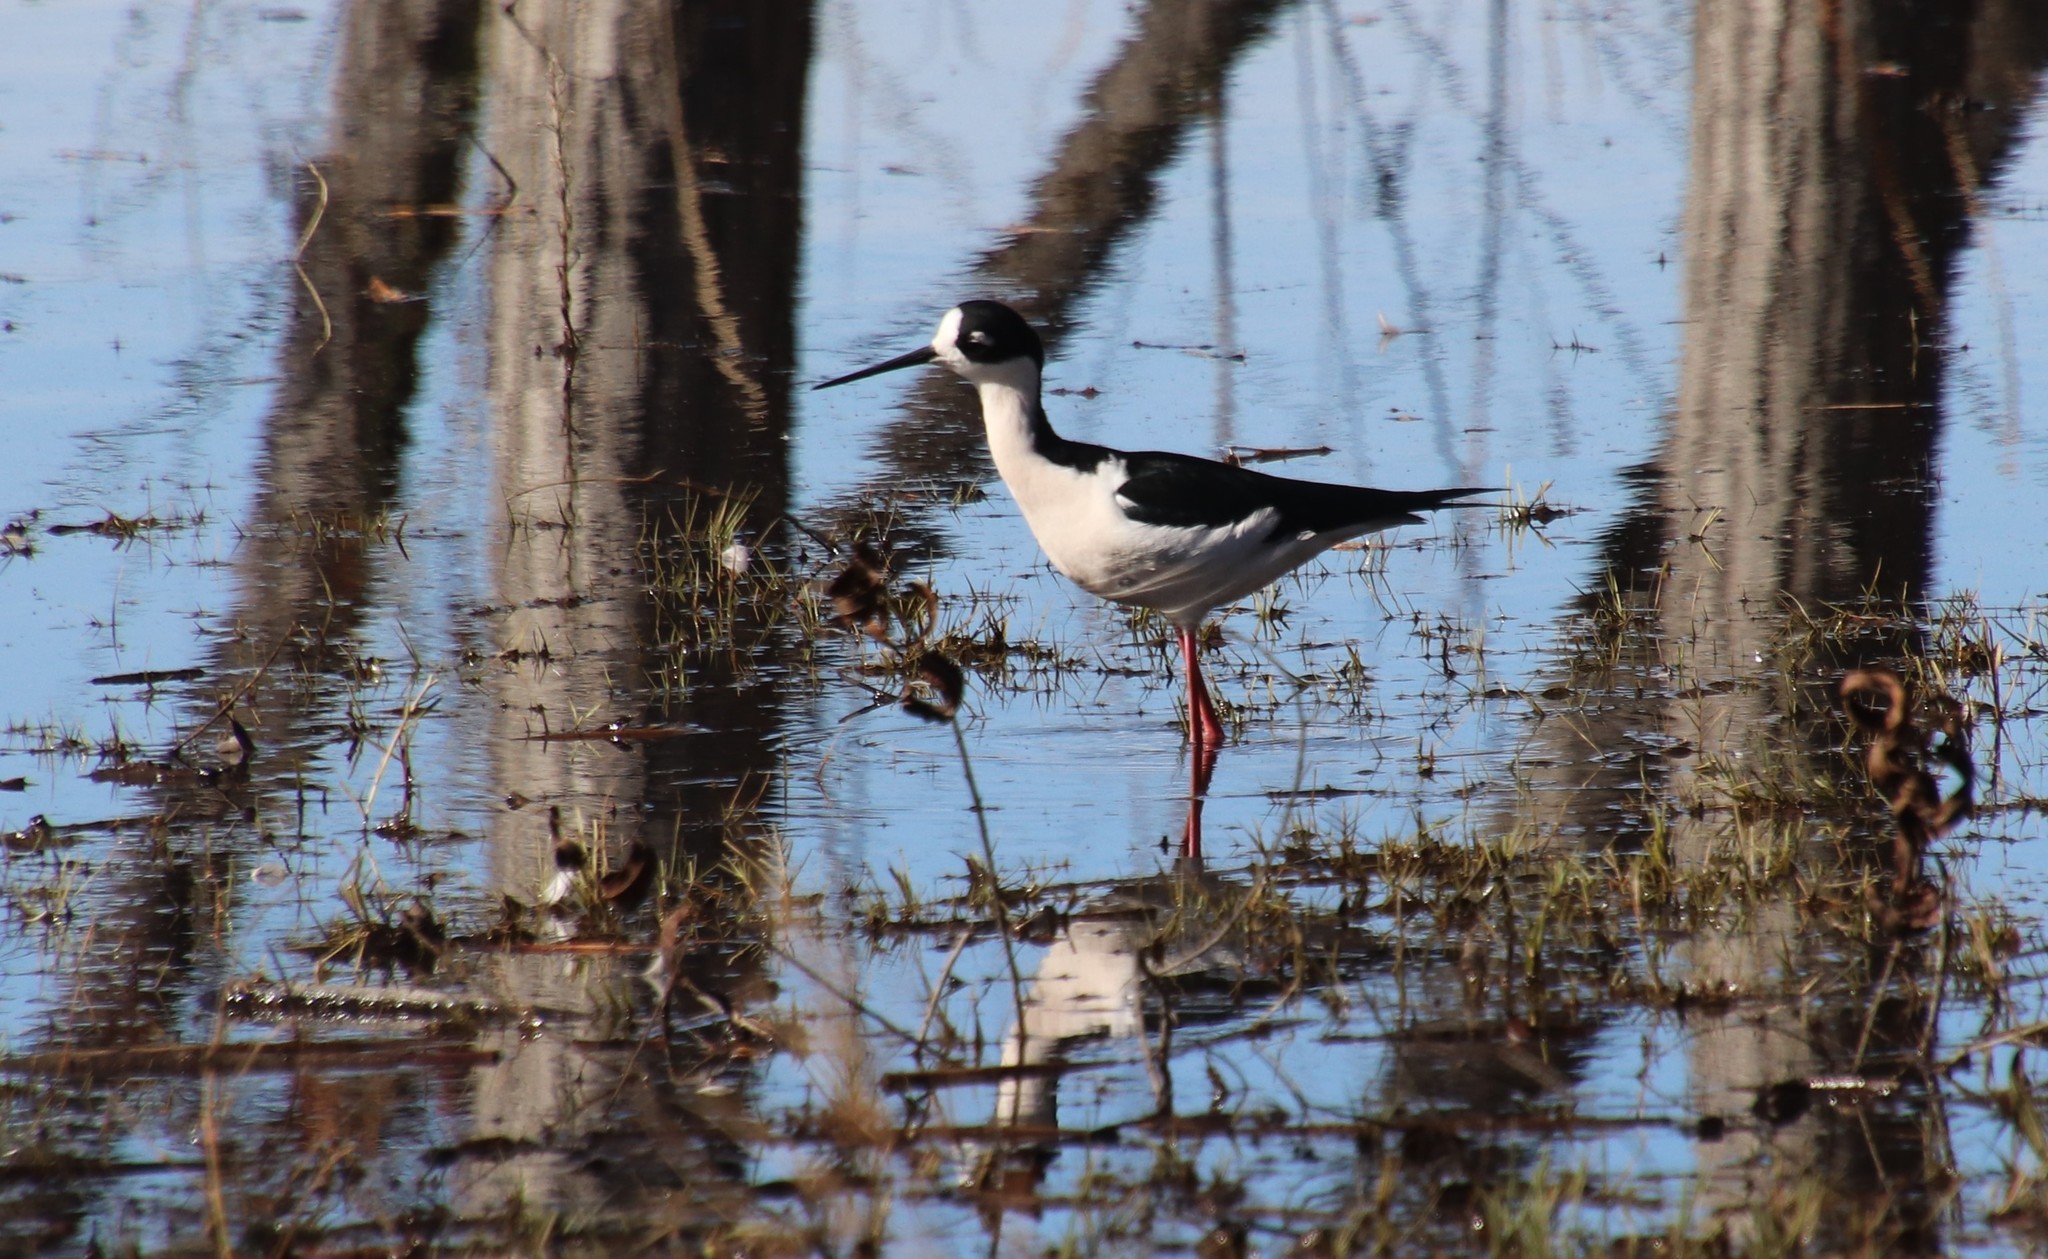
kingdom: Animalia
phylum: Chordata
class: Aves
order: Charadriiformes
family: Recurvirostridae
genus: Himantopus
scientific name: Himantopus mexicanus
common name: Black-necked stilt
